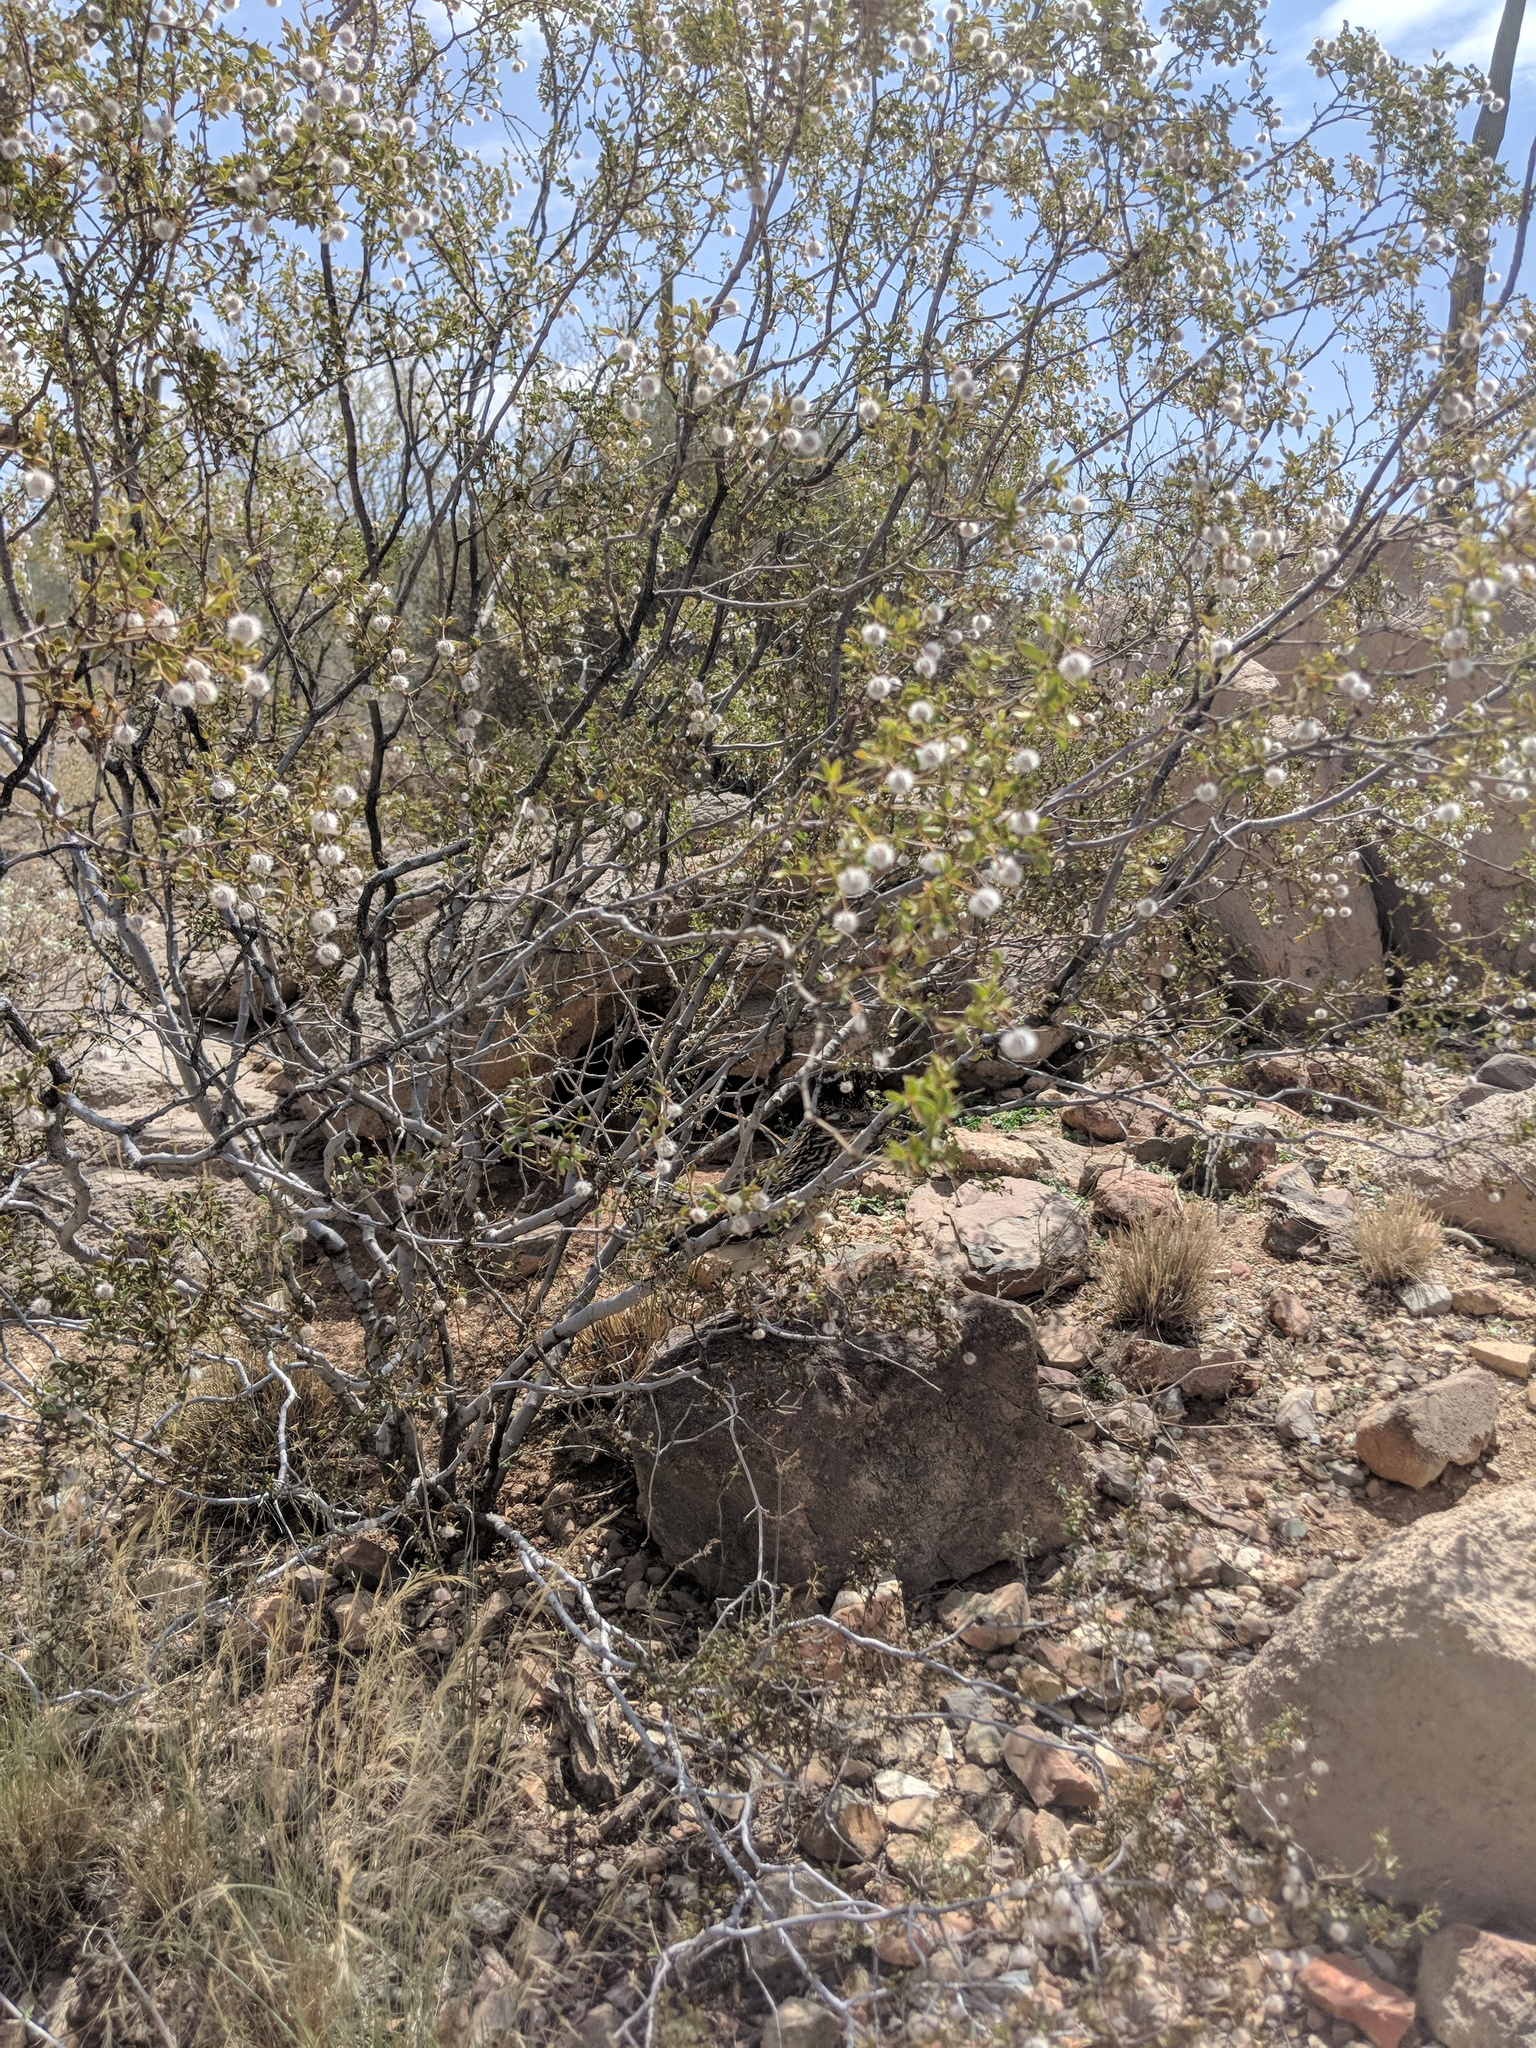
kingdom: Animalia
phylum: Chordata
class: Aves
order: Cuculiformes
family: Cuculidae
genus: Geococcyx
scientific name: Geococcyx californianus
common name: Greater roadrunner
